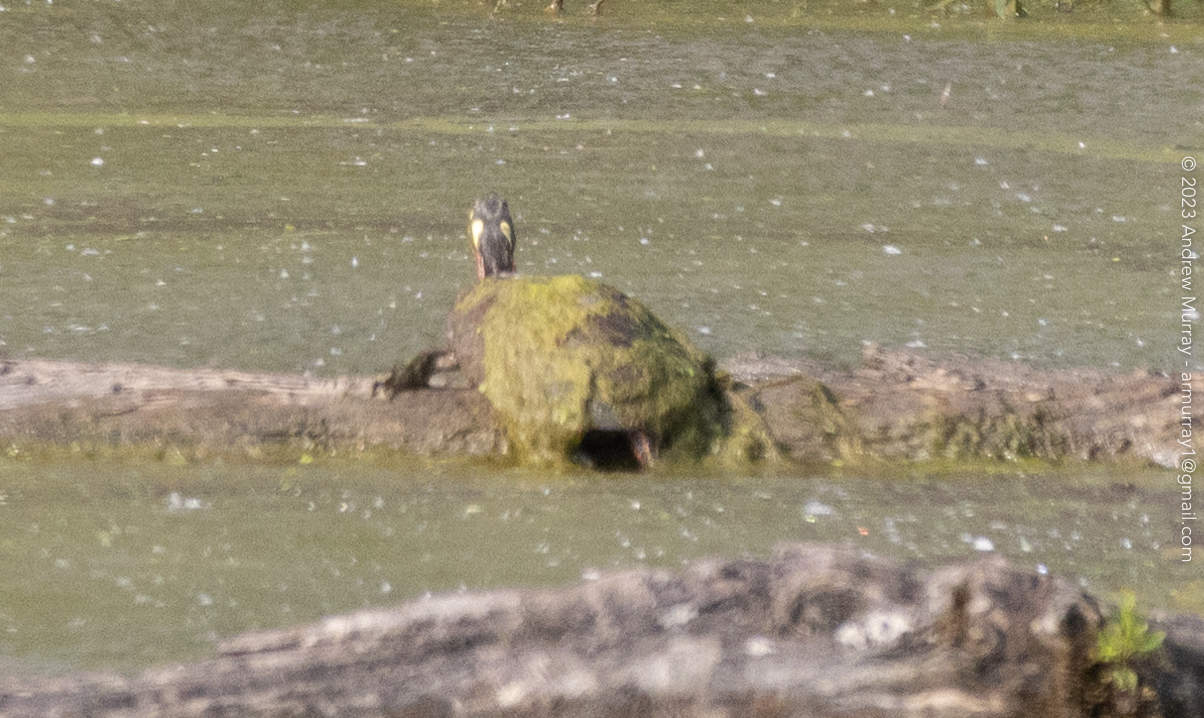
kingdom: Animalia
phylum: Chordata
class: Testudines
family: Emydidae
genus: Chrysemys
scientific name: Chrysemys picta
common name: Painted turtle
